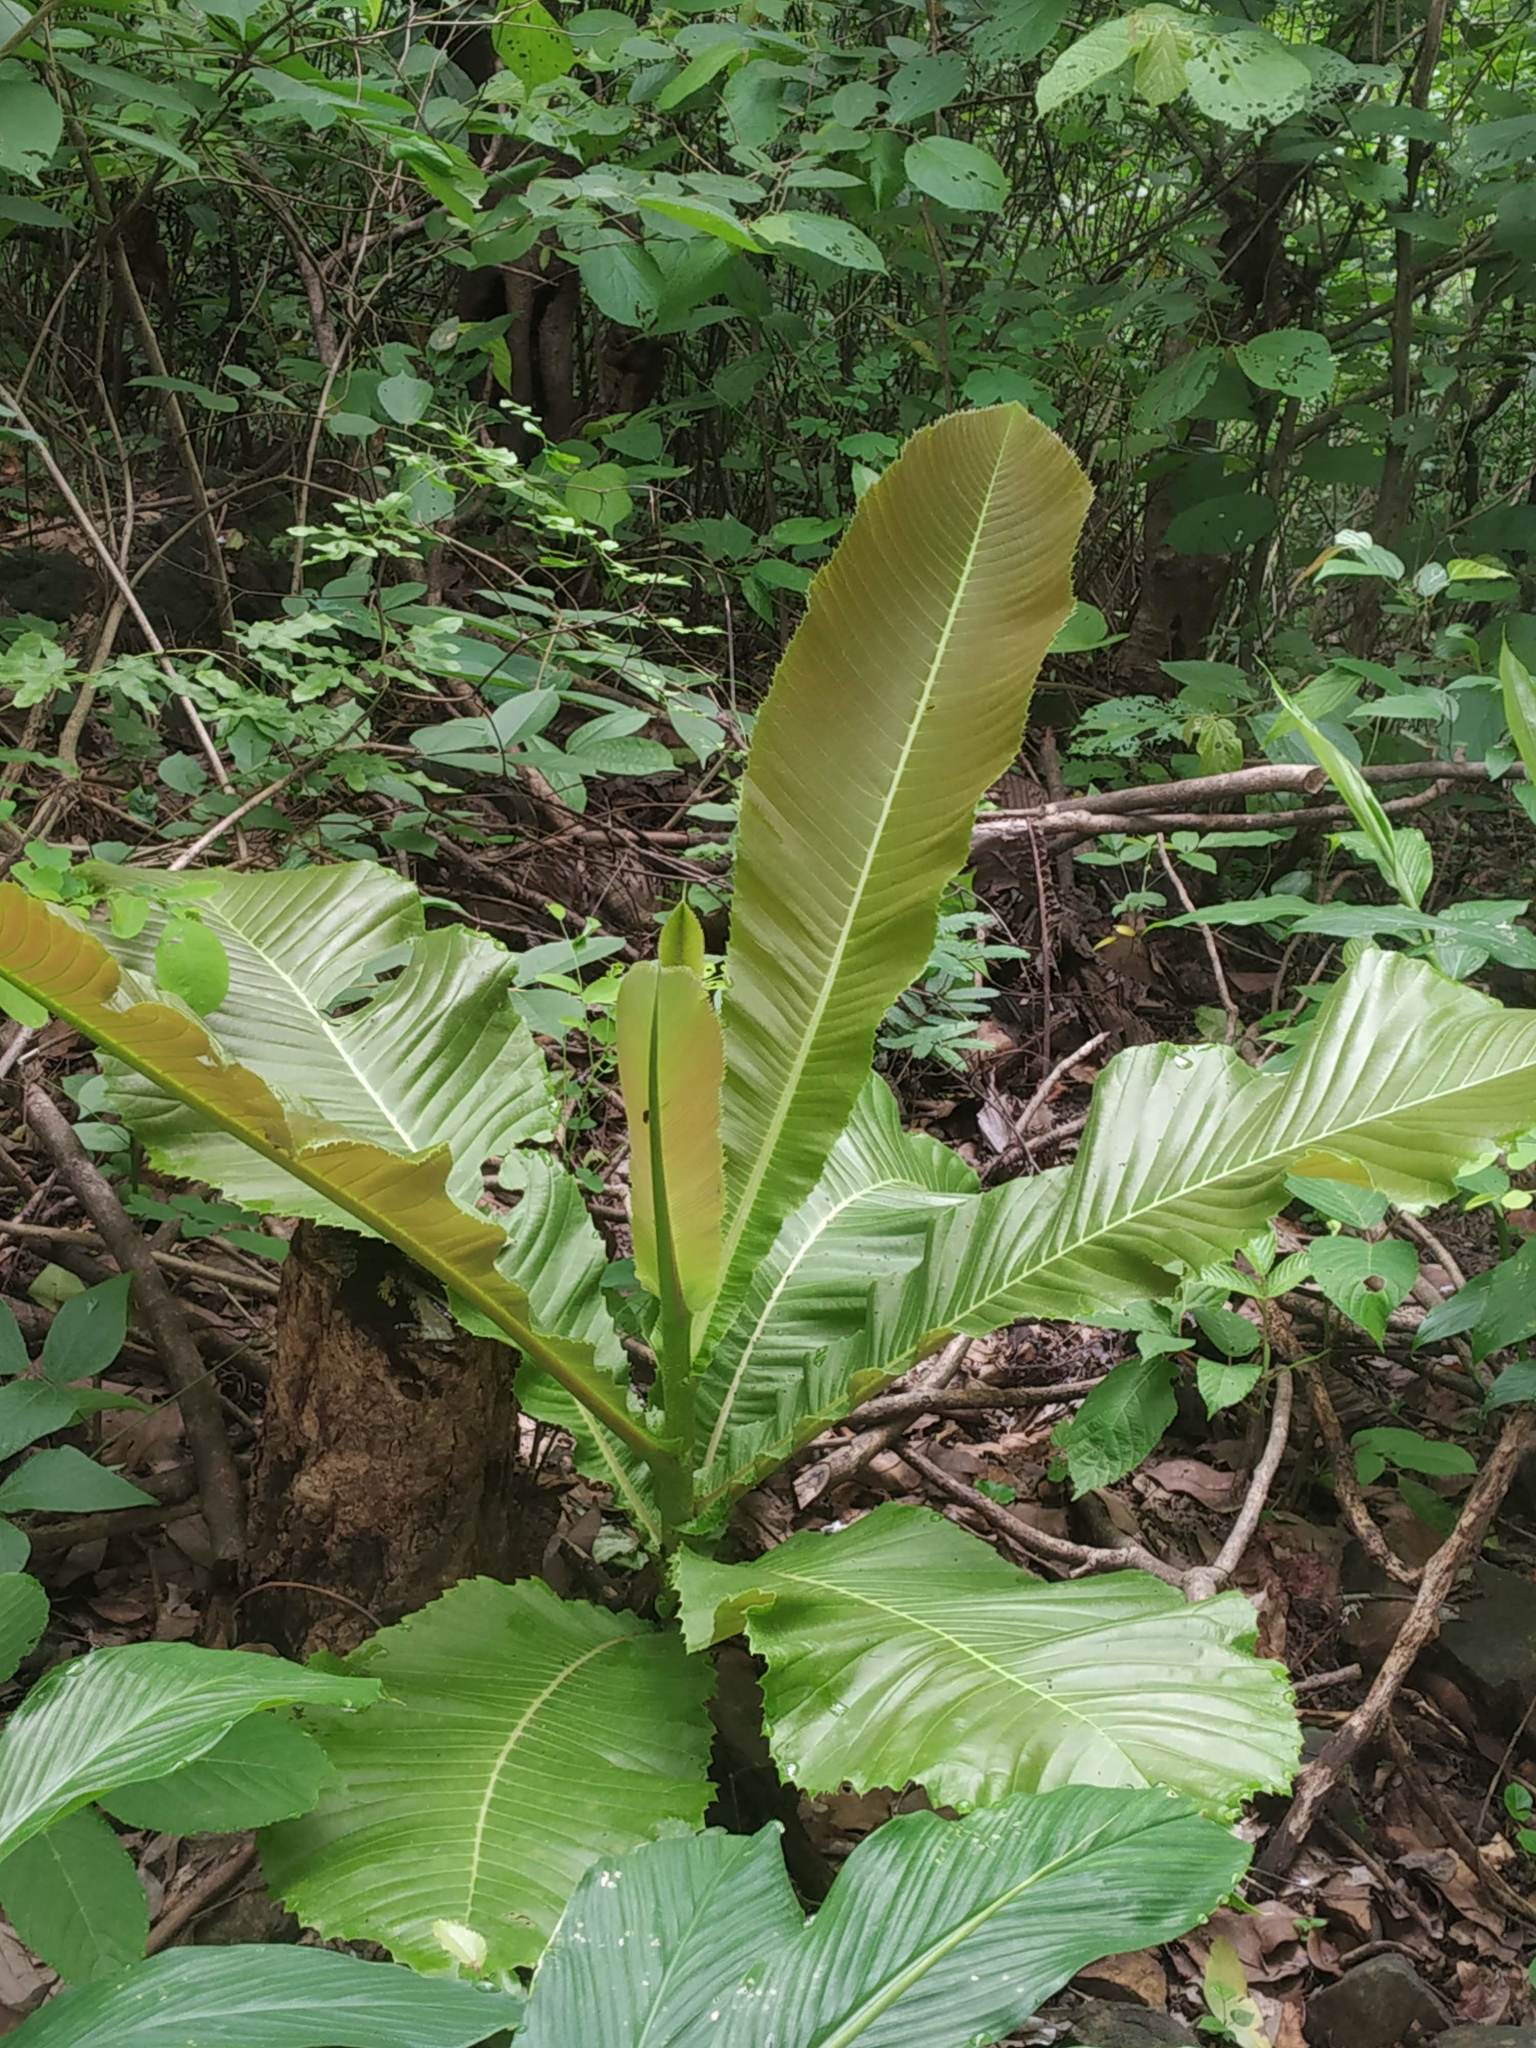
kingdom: Plantae
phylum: Tracheophyta
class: Magnoliopsida
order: Dilleniales
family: Dilleniaceae
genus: Dillenia
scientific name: Dillenia indica
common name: Elephant apple
